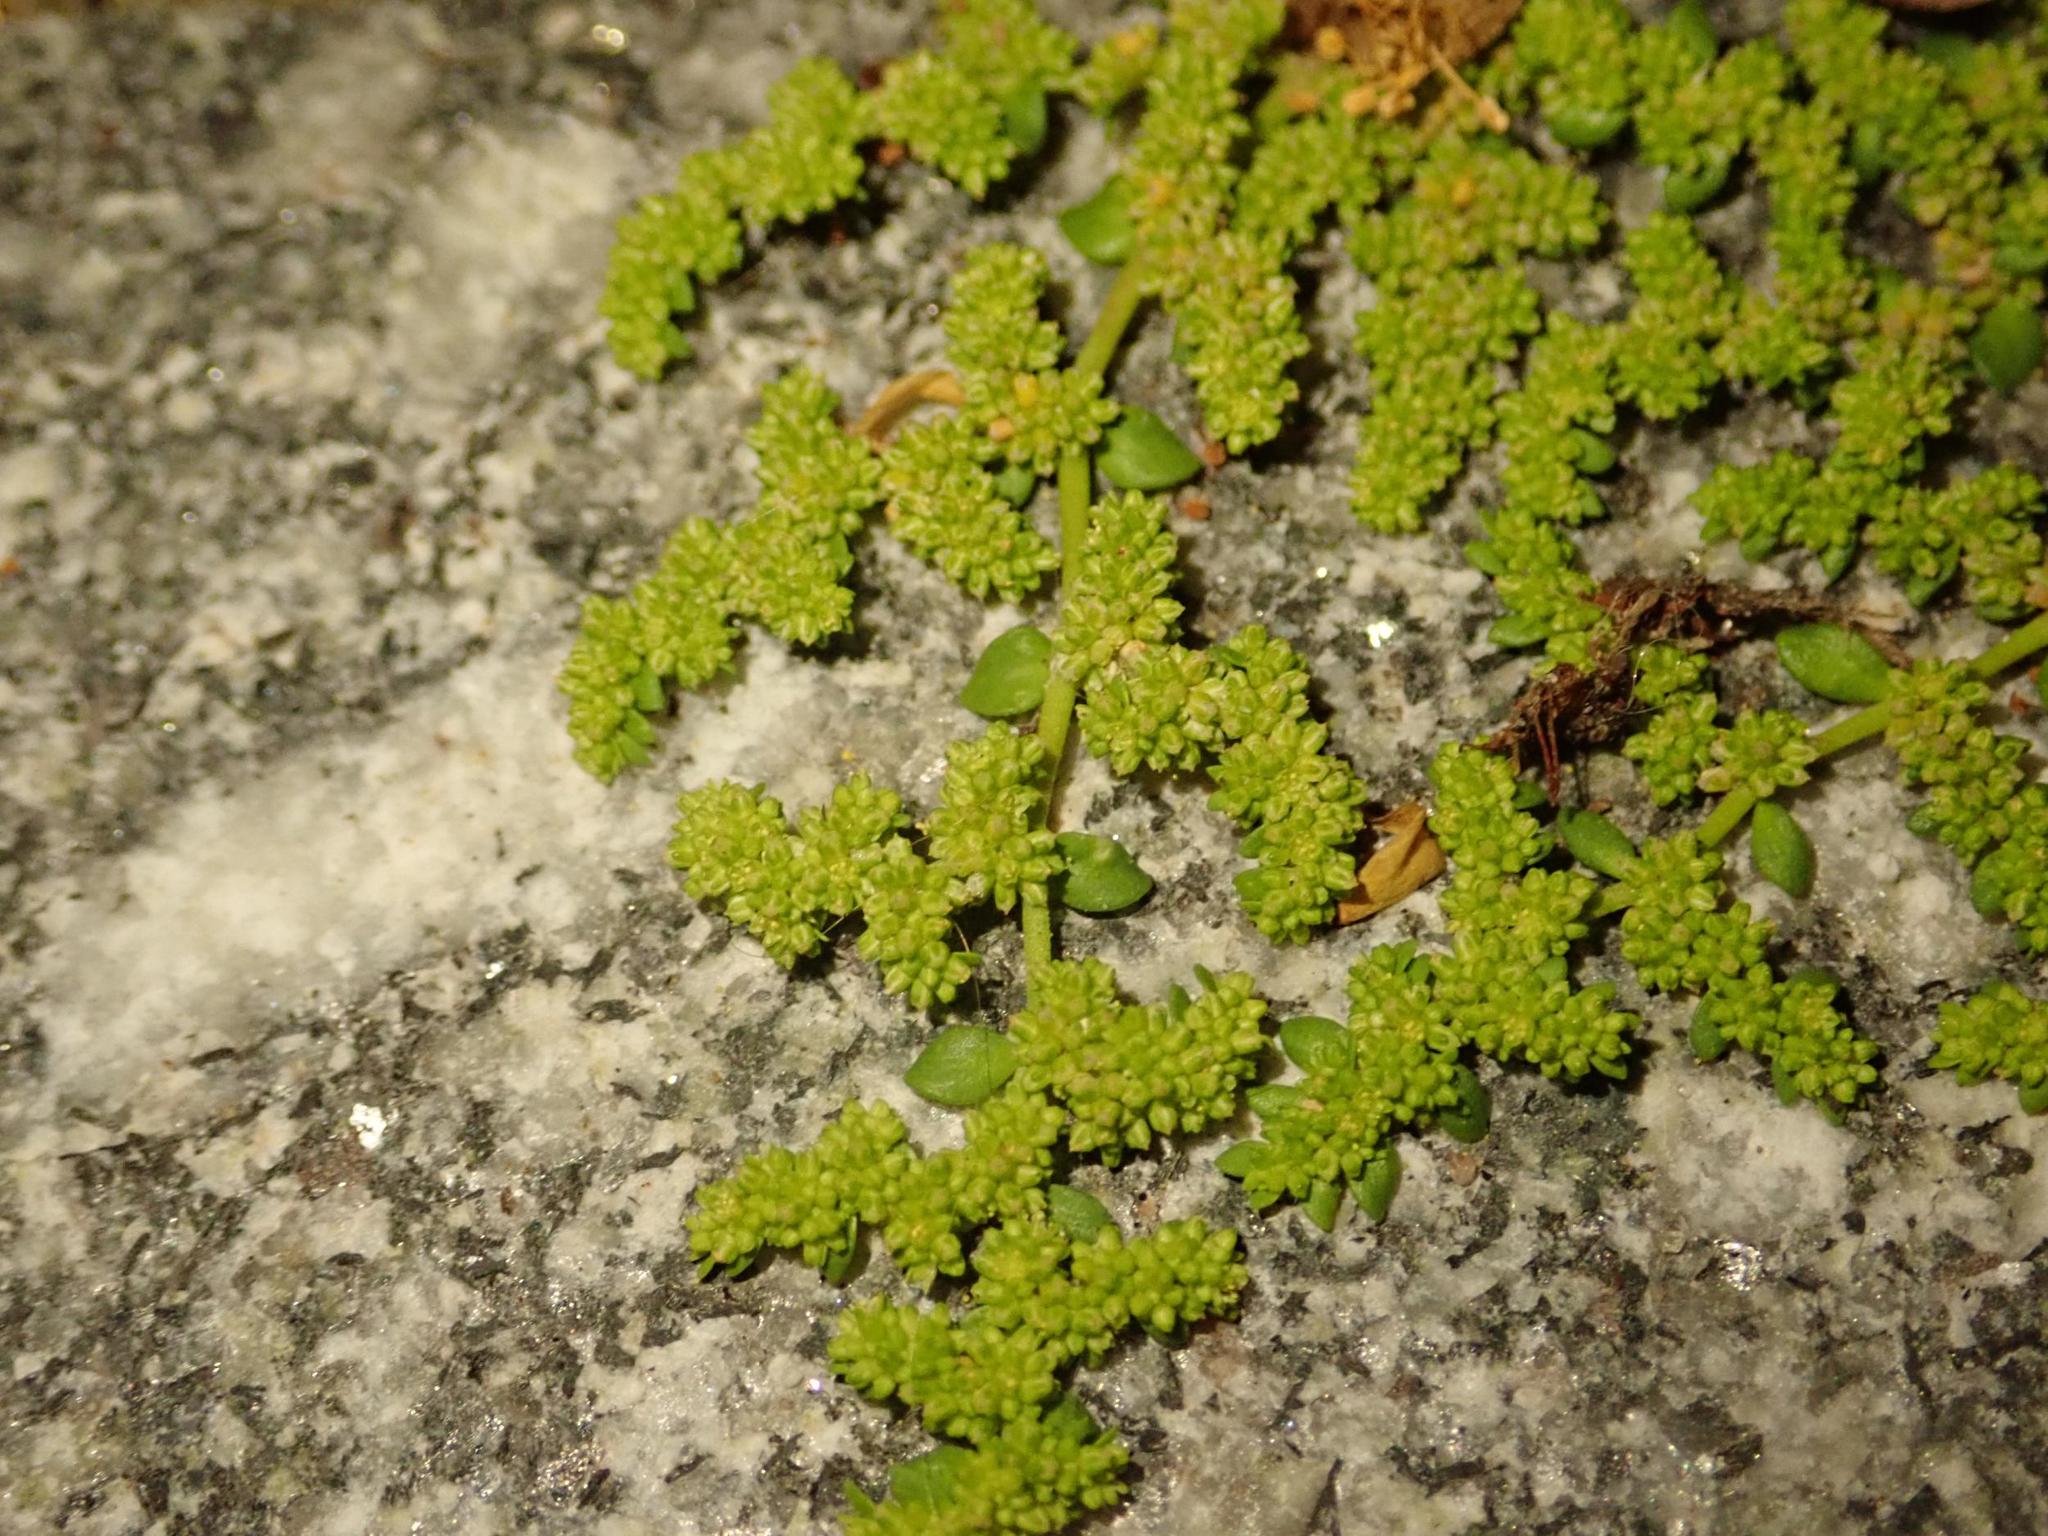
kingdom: Plantae
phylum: Tracheophyta
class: Magnoliopsida
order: Caryophyllales
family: Caryophyllaceae
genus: Herniaria
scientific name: Herniaria glabra
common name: Smooth rupturewort
